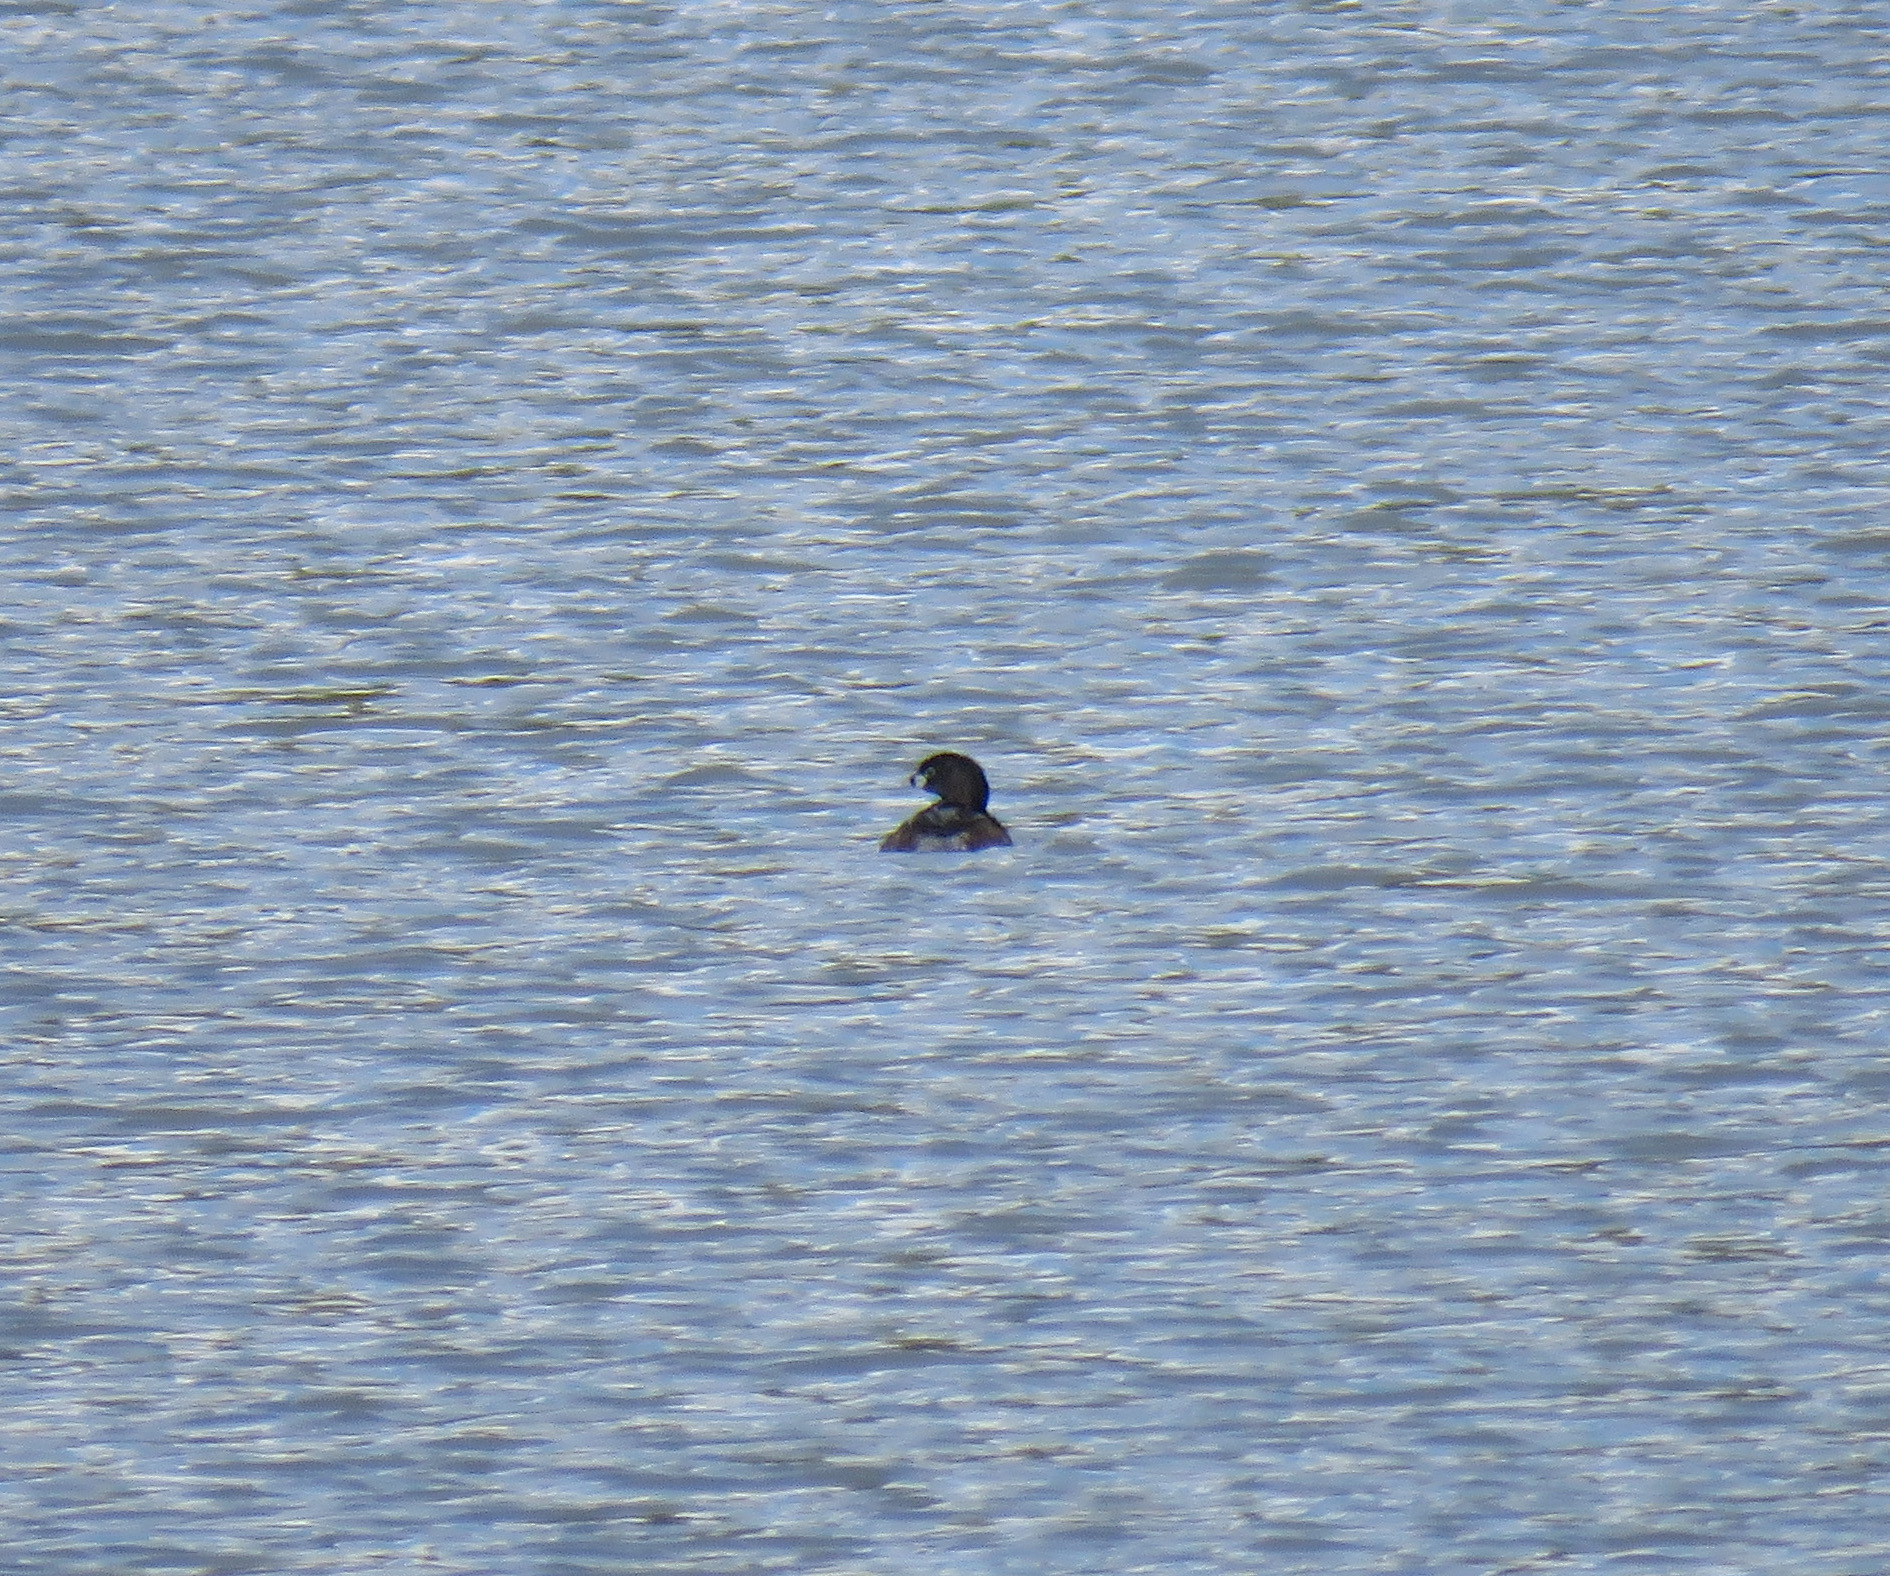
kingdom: Animalia
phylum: Chordata
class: Aves
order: Podicipediformes
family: Podicipedidae
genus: Podilymbus
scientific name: Podilymbus podiceps
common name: Pied-billed grebe
